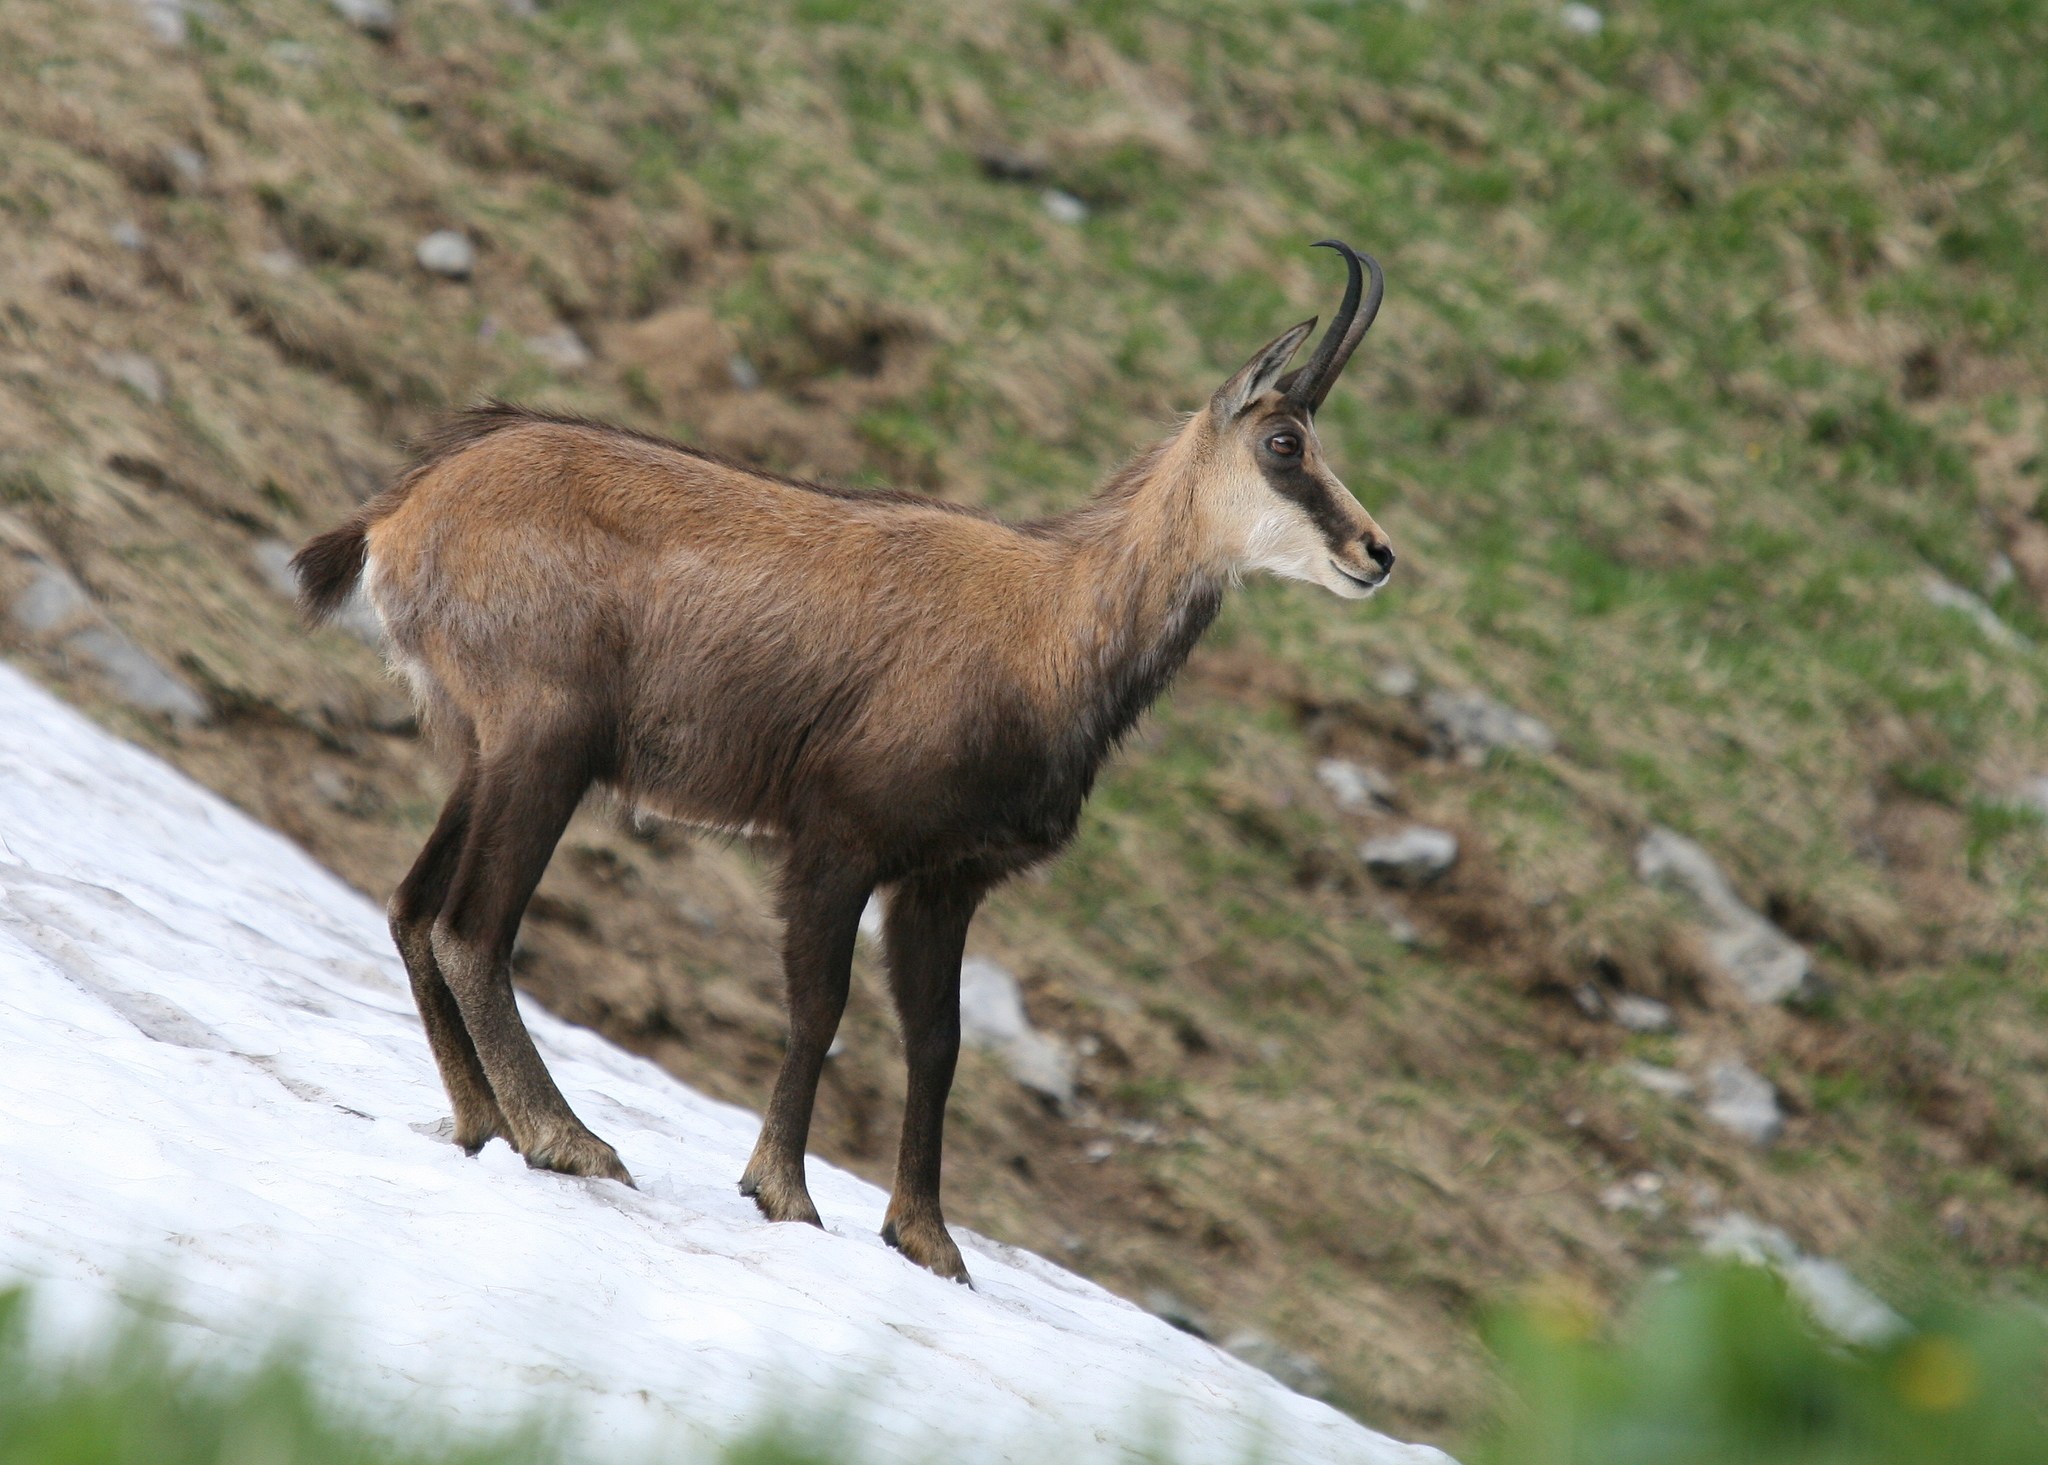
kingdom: Animalia
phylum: Chordata
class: Mammalia
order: Artiodactyla
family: Bovidae
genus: Rupicapra
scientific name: Rupicapra rupicapra
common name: Chamois
